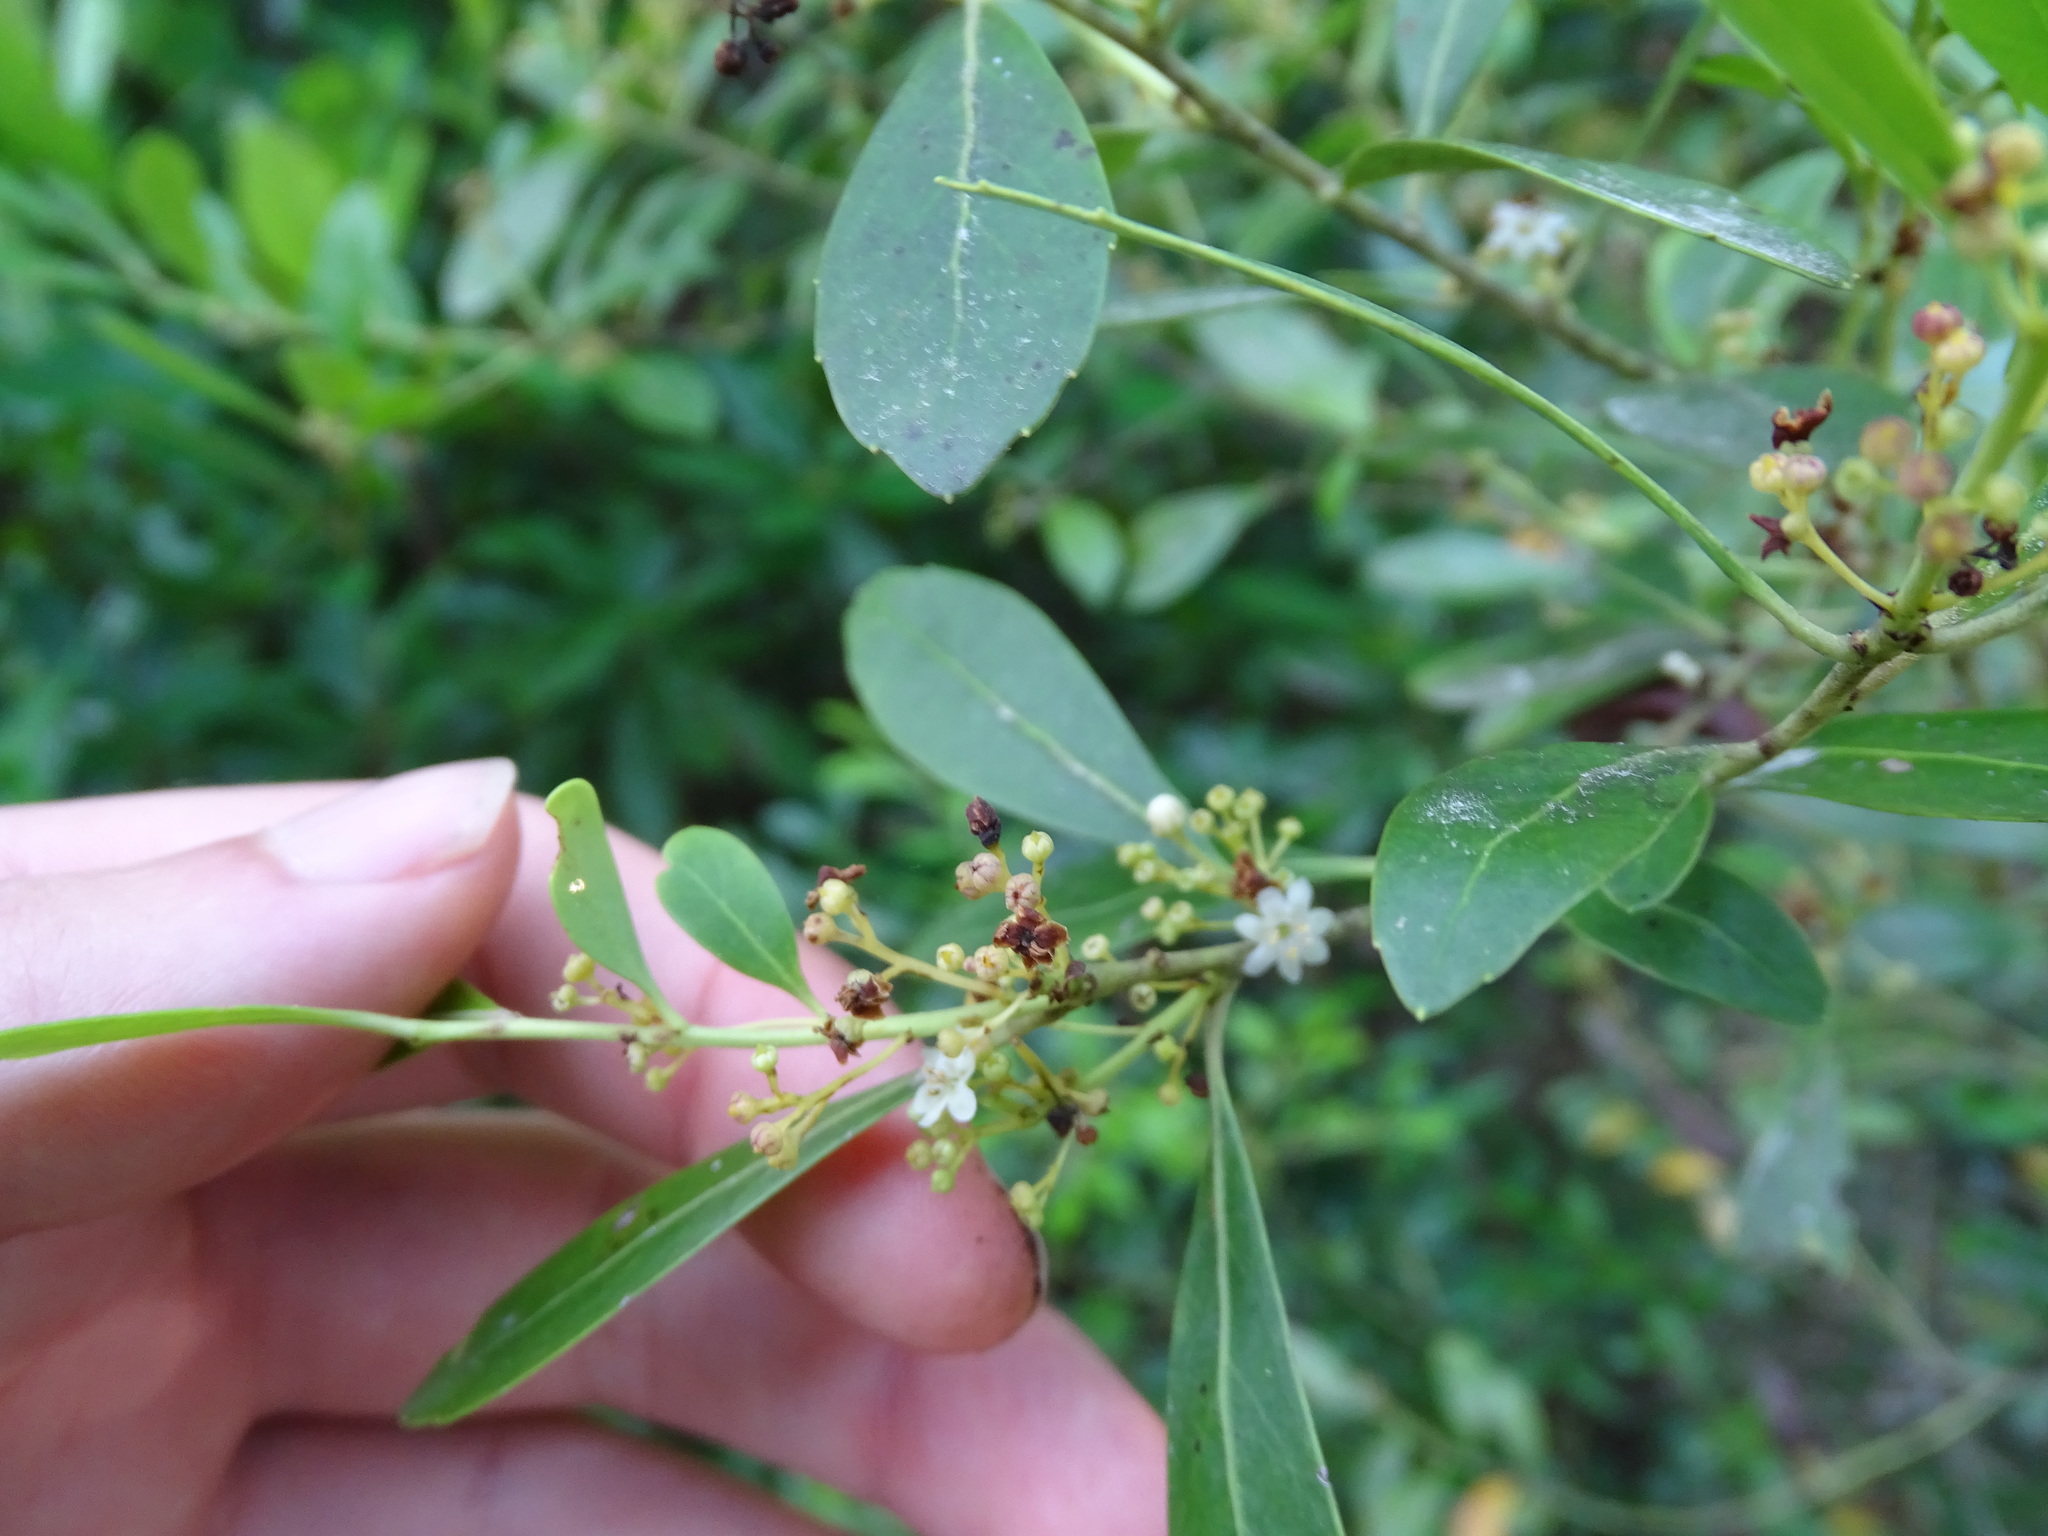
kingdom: Plantae
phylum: Tracheophyta
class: Magnoliopsida
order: Aquifoliales
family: Aquifoliaceae
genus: Ilex
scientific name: Ilex glabra
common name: Bitter gallberry
